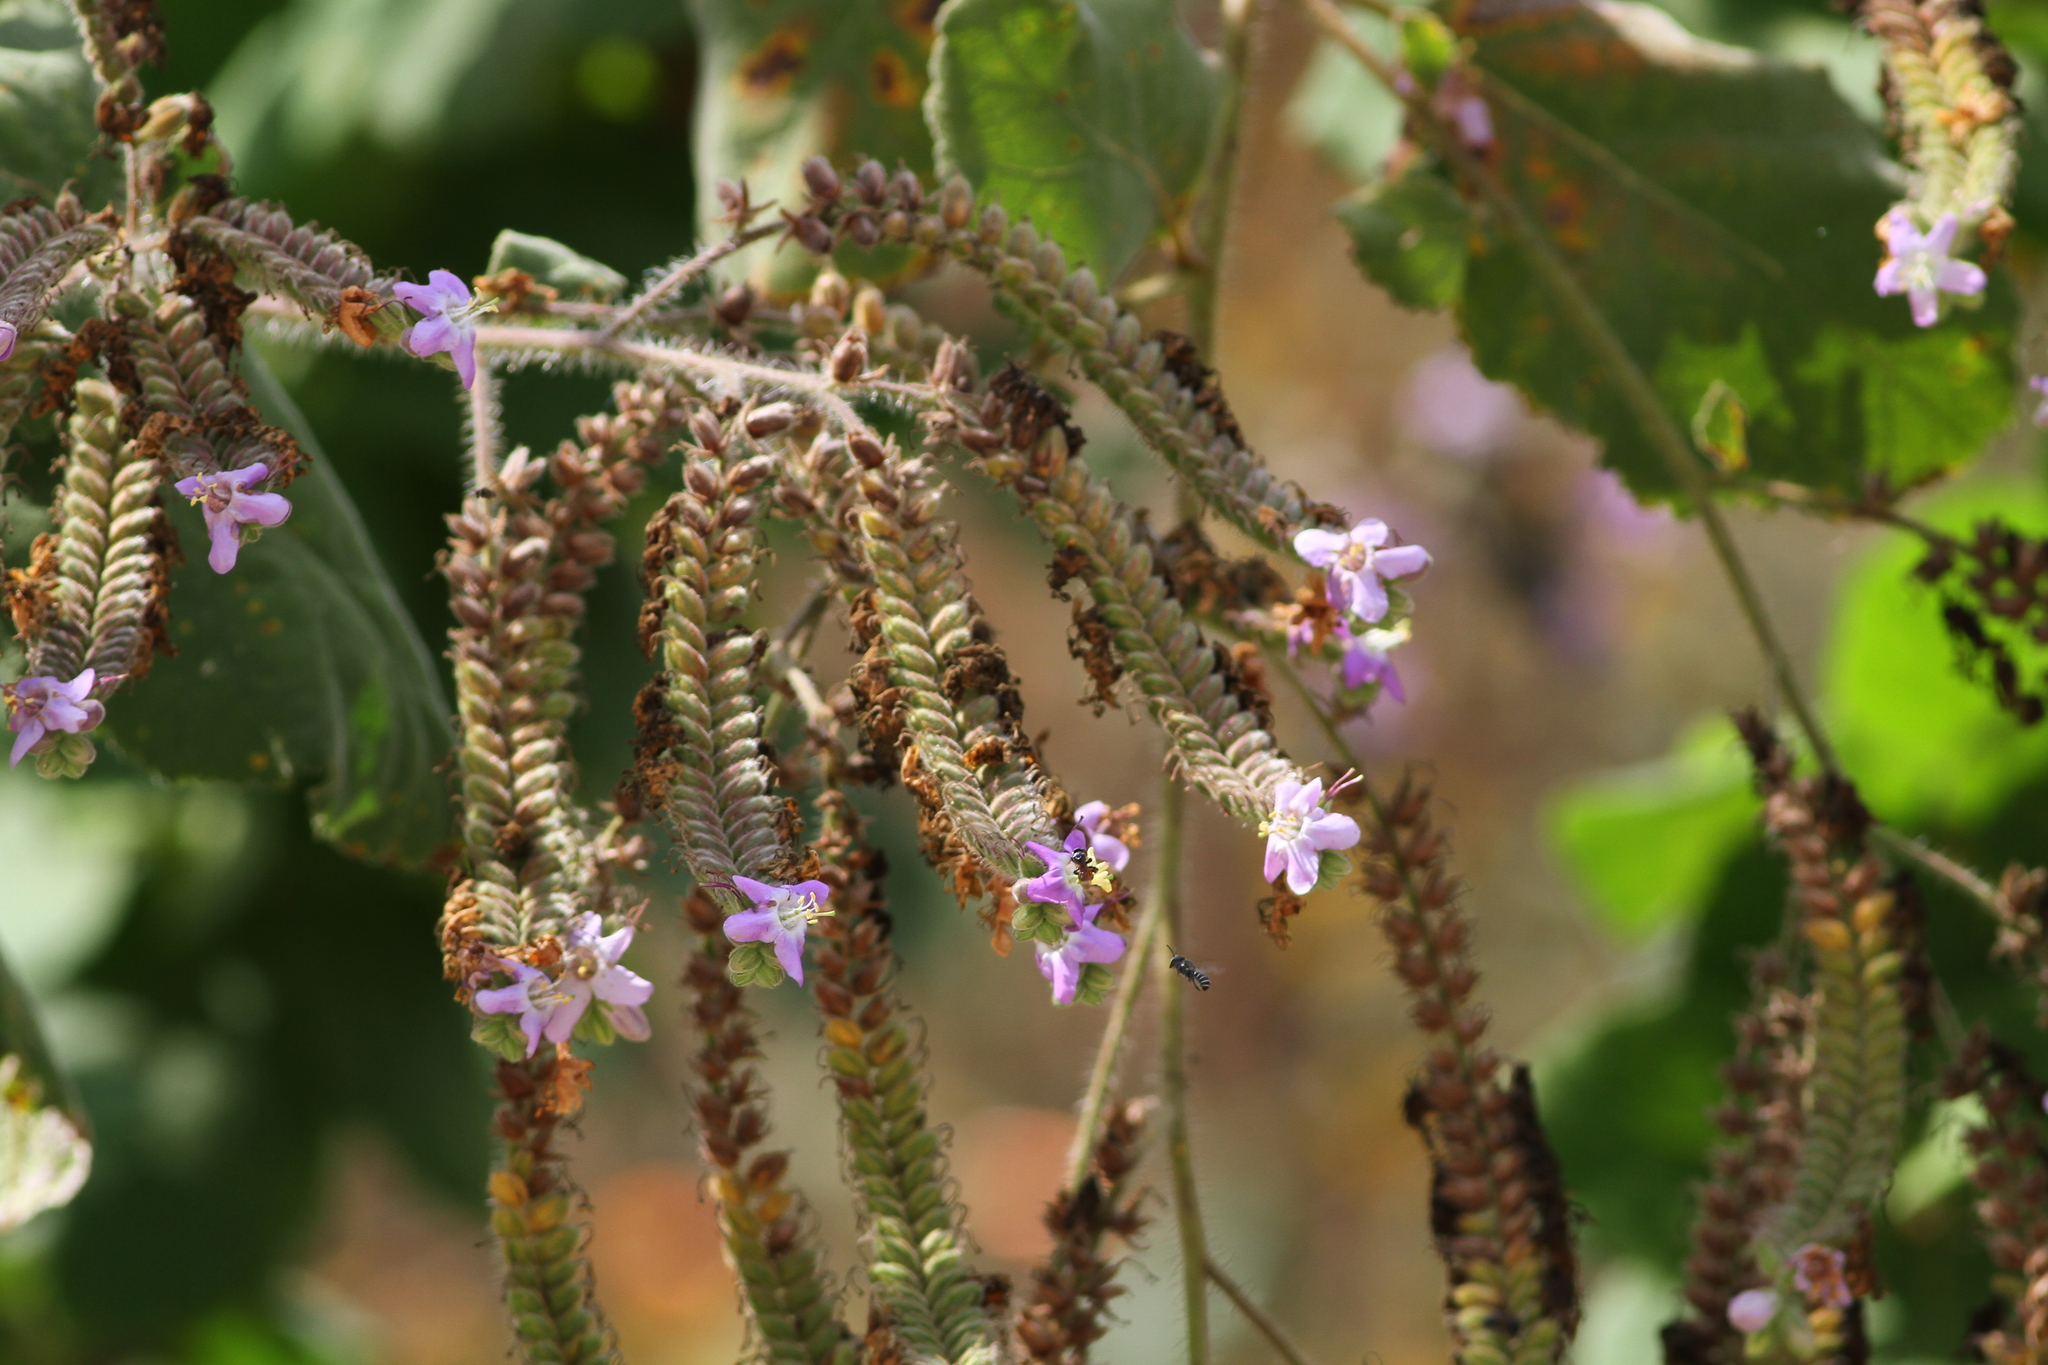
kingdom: Plantae
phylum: Tracheophyta
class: Magnoliopsida
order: Boraginales
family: Namaceae
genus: Wigandia
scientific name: Wigandia urens
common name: Caracus wigandia
